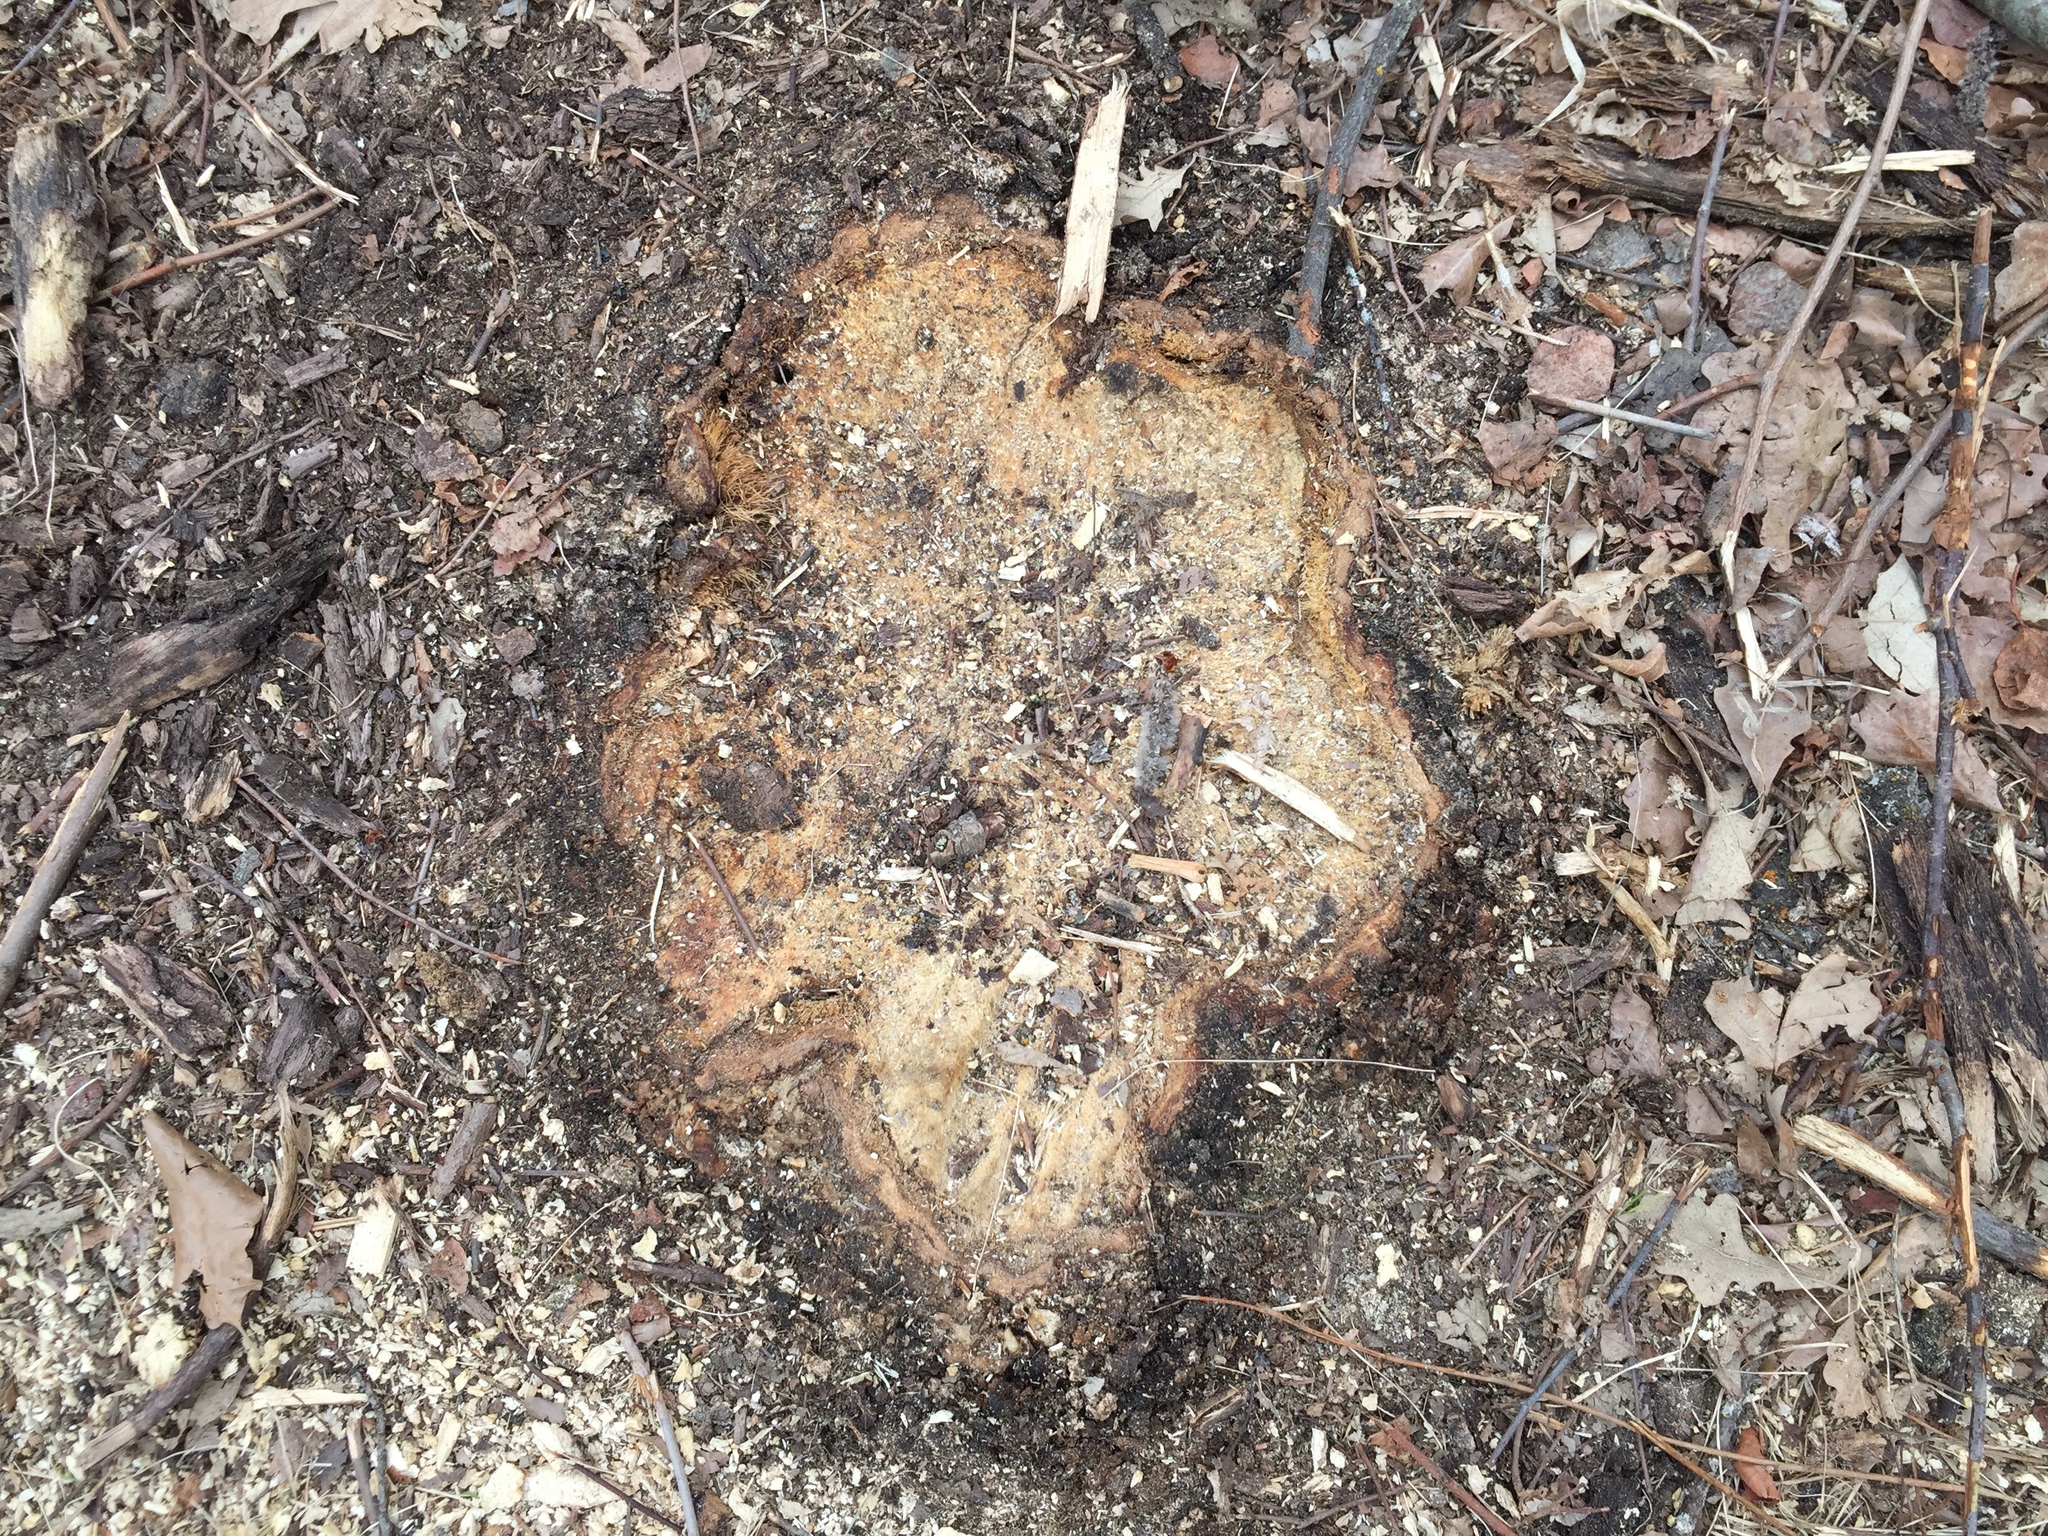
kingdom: Plantae
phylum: Tracheophyta
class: Pinopsida
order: Pinales
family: Pinaceae
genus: Picea
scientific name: Picea glauca
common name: White spruce
